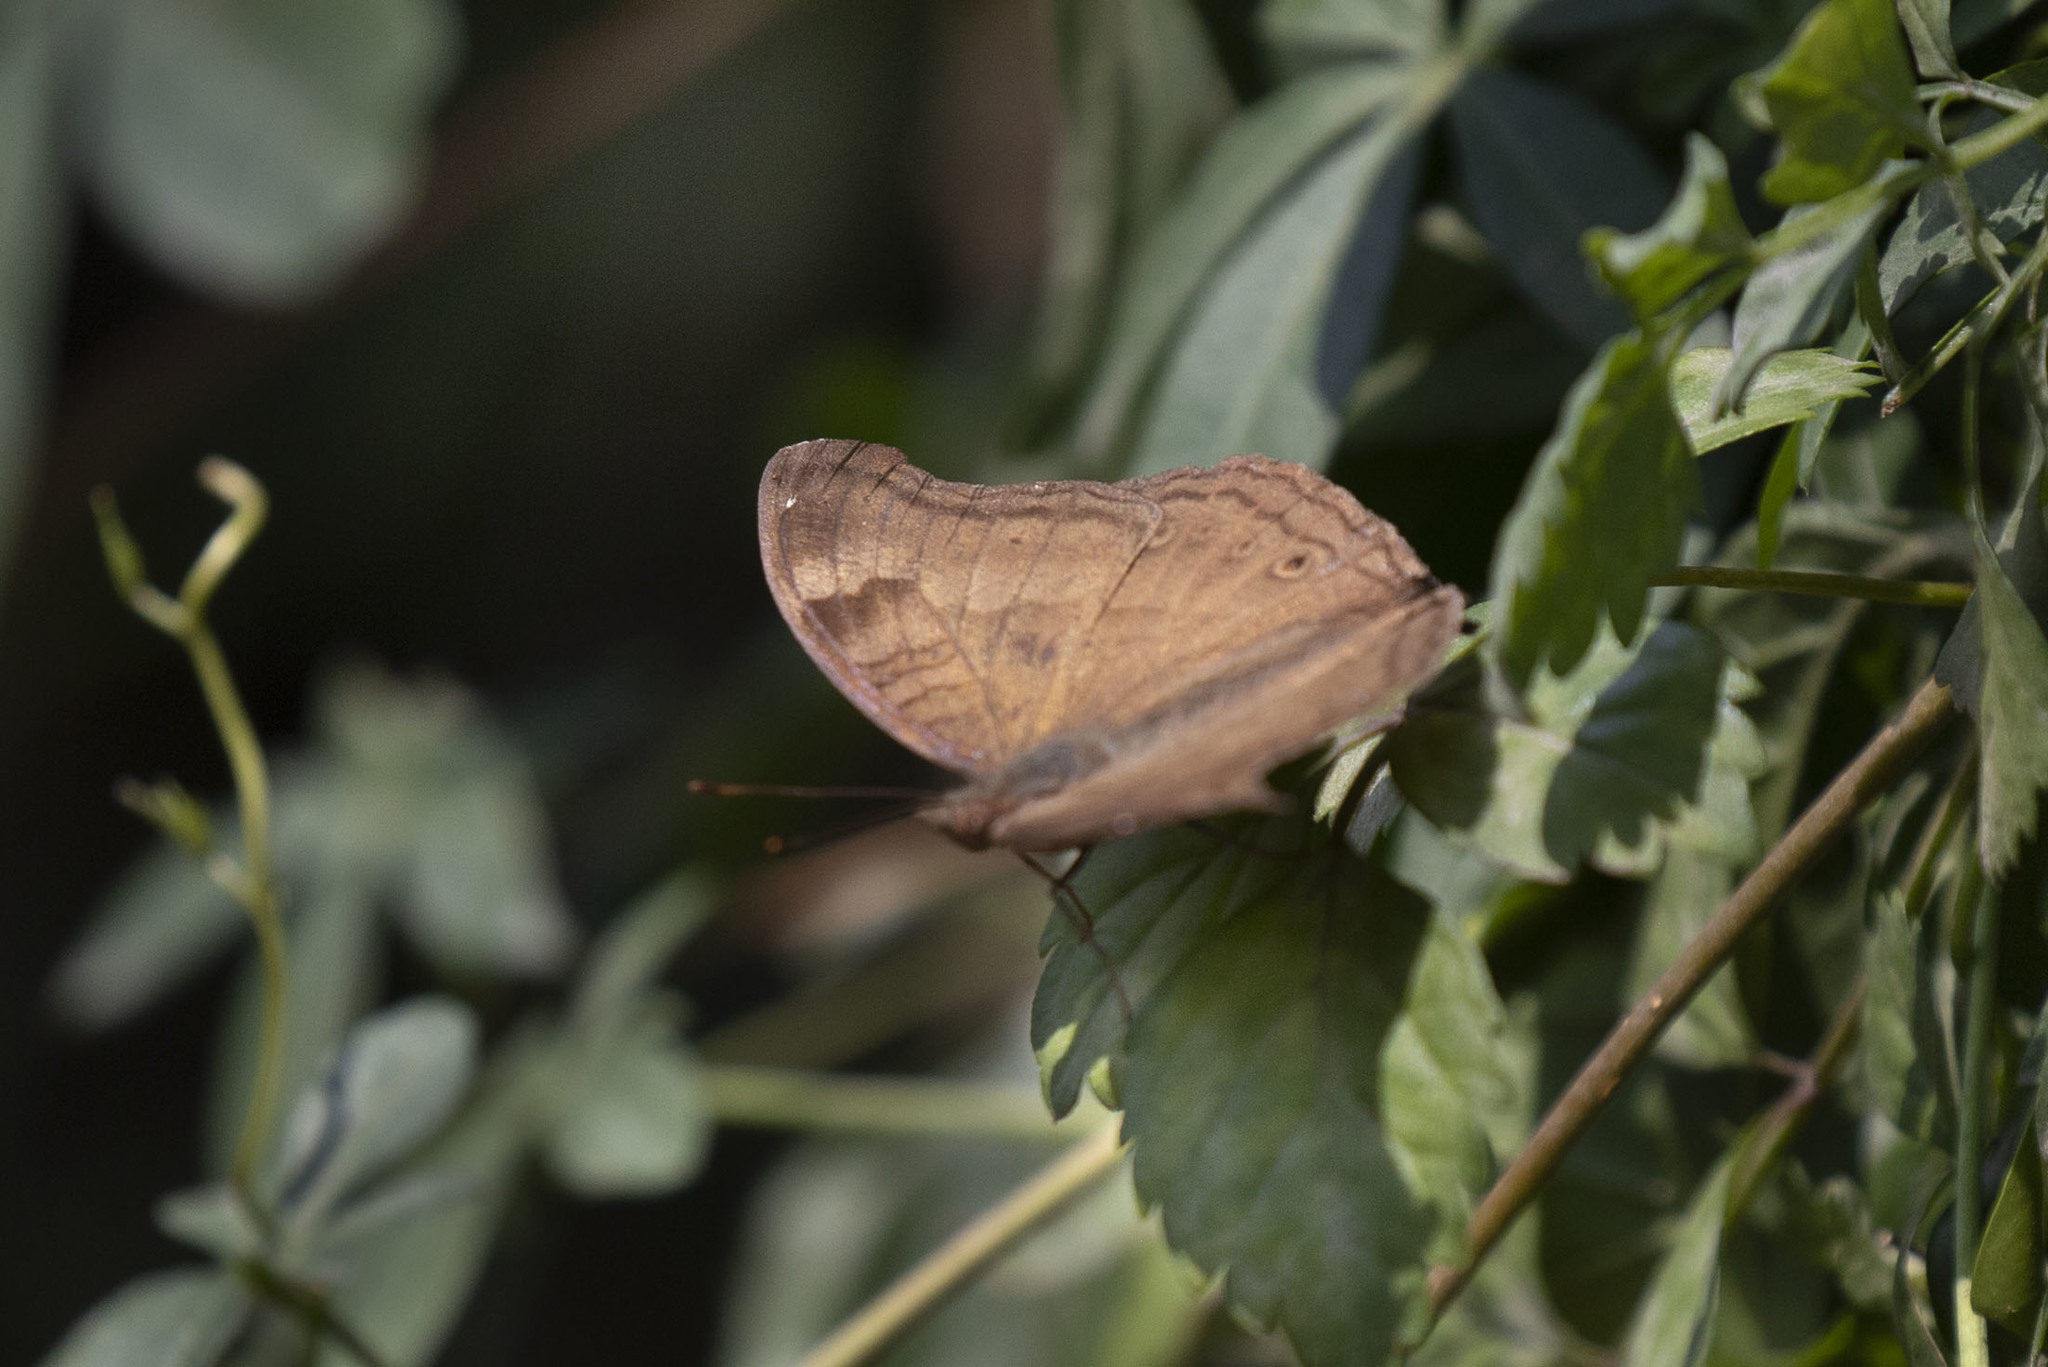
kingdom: Animalia
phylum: Arthropoda
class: Insecta
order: Lepidoptera
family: Nymphalidae
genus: Junonia
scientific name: Junonia iphita
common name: Chocolate pansy
